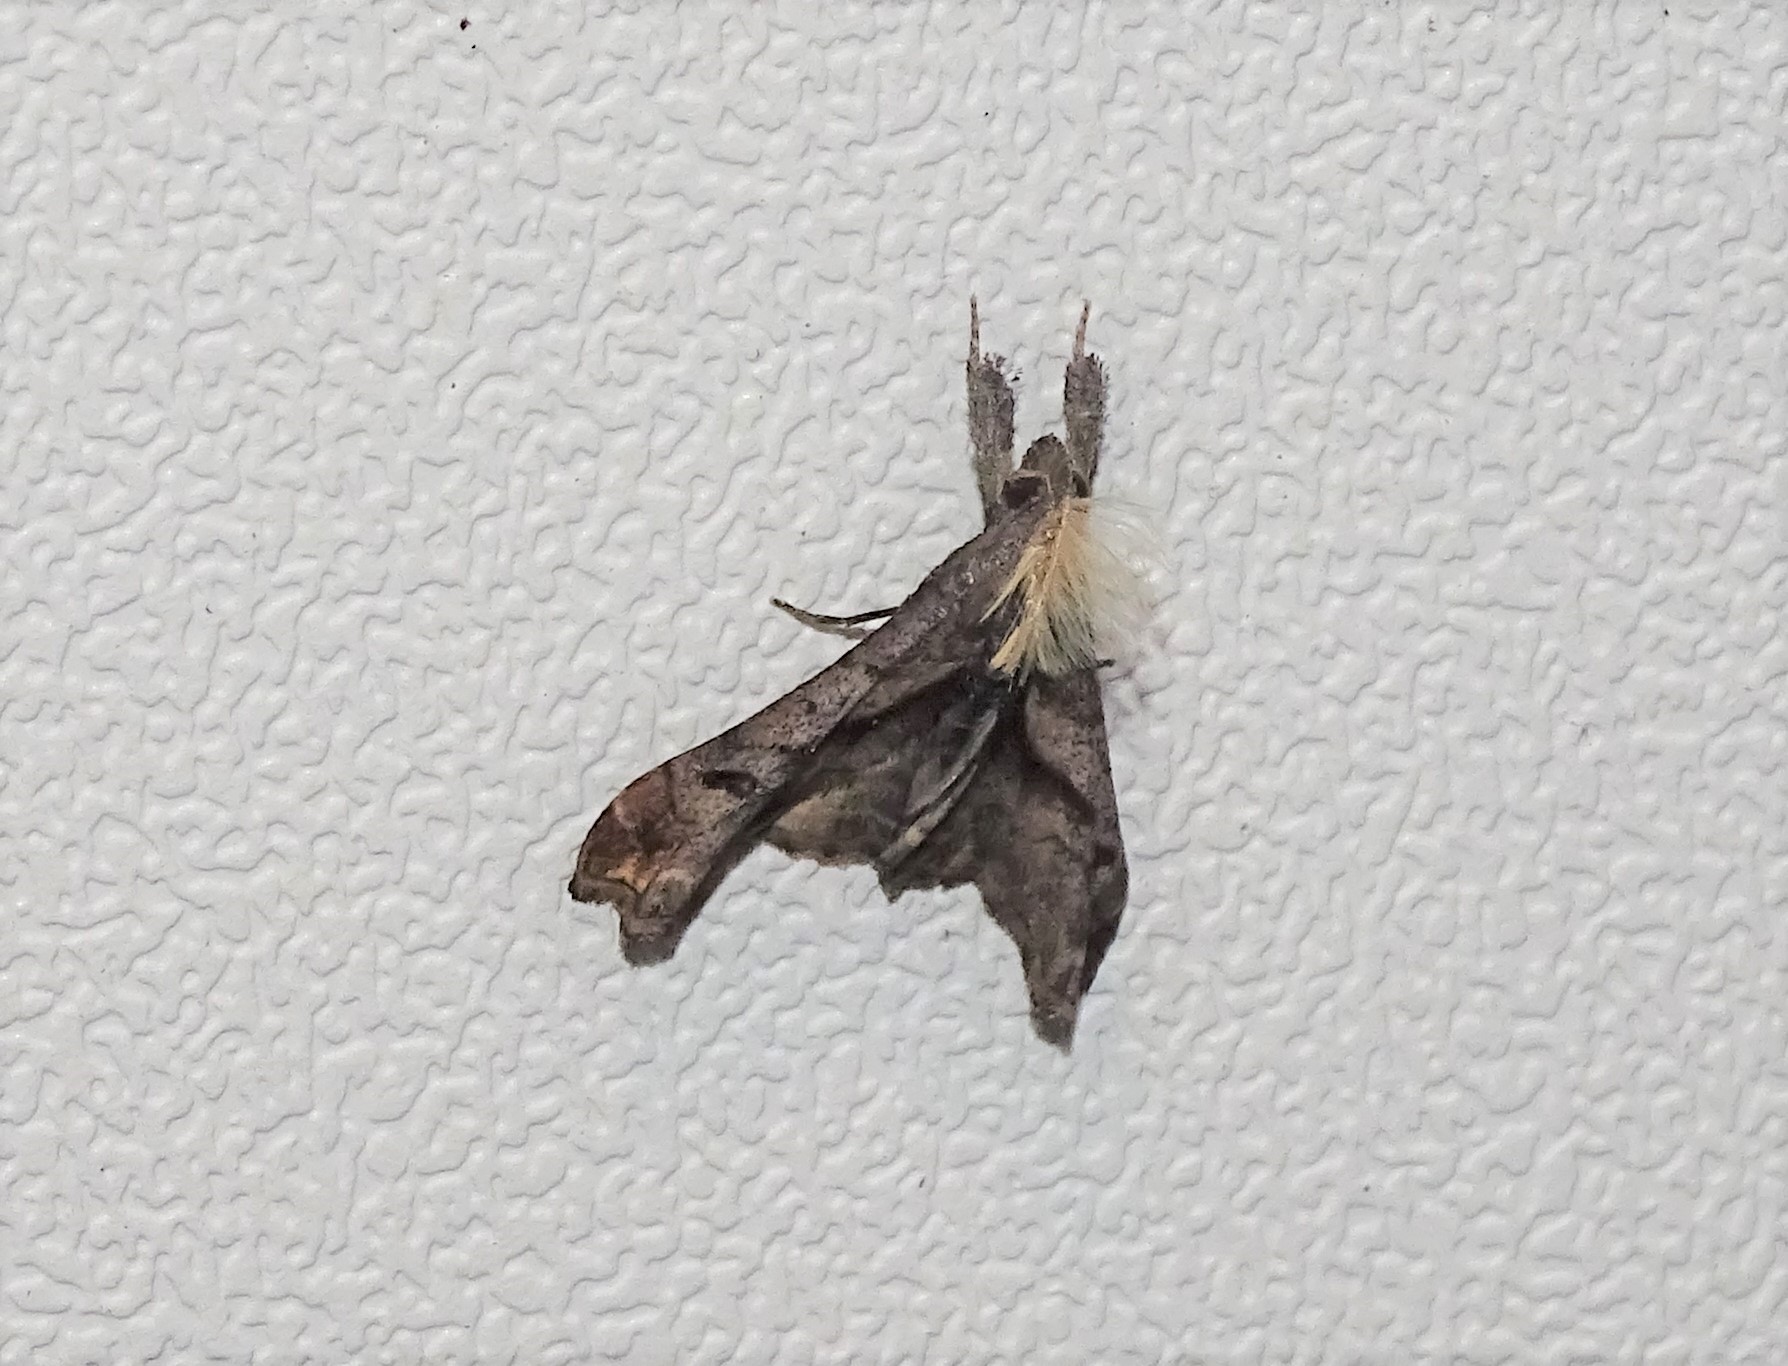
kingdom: Animalia
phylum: Arthropoda
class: Insecta
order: Lepidoptera
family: Erebidae
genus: Palthis
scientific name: Palthis angulalis
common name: Dark-spotted palthis moth
